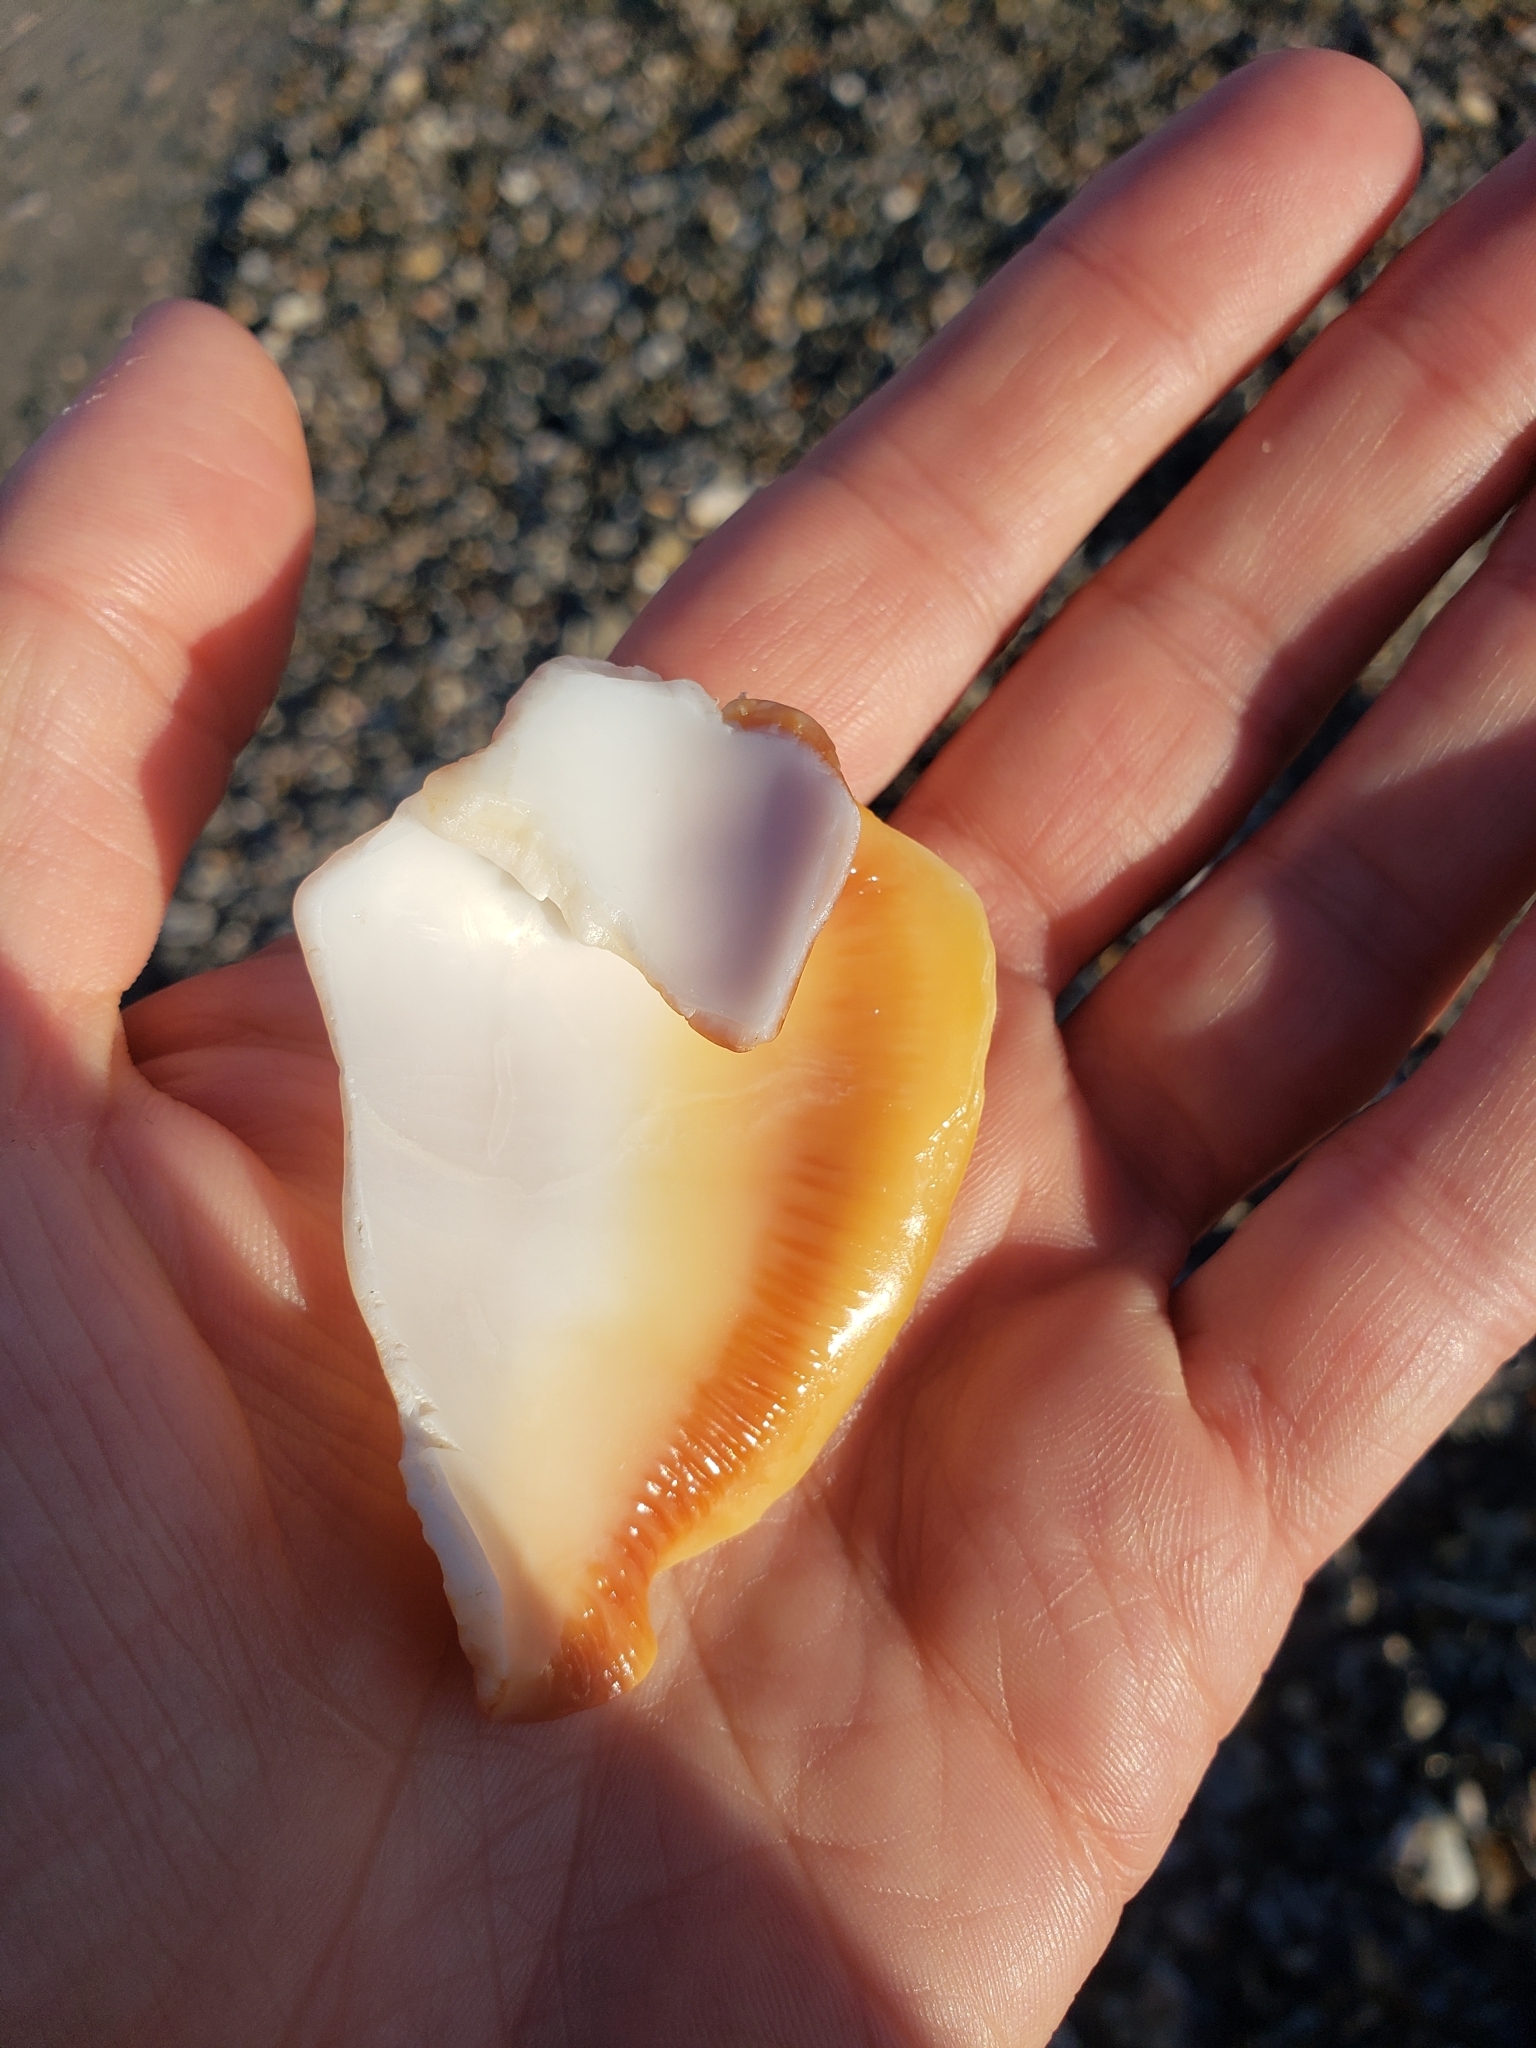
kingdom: Animalia
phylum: Mollusca
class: Gastropoda
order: Littorinimorpha
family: Strombidae
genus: Strombus
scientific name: Strombus alatus
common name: Florida fighting conch
